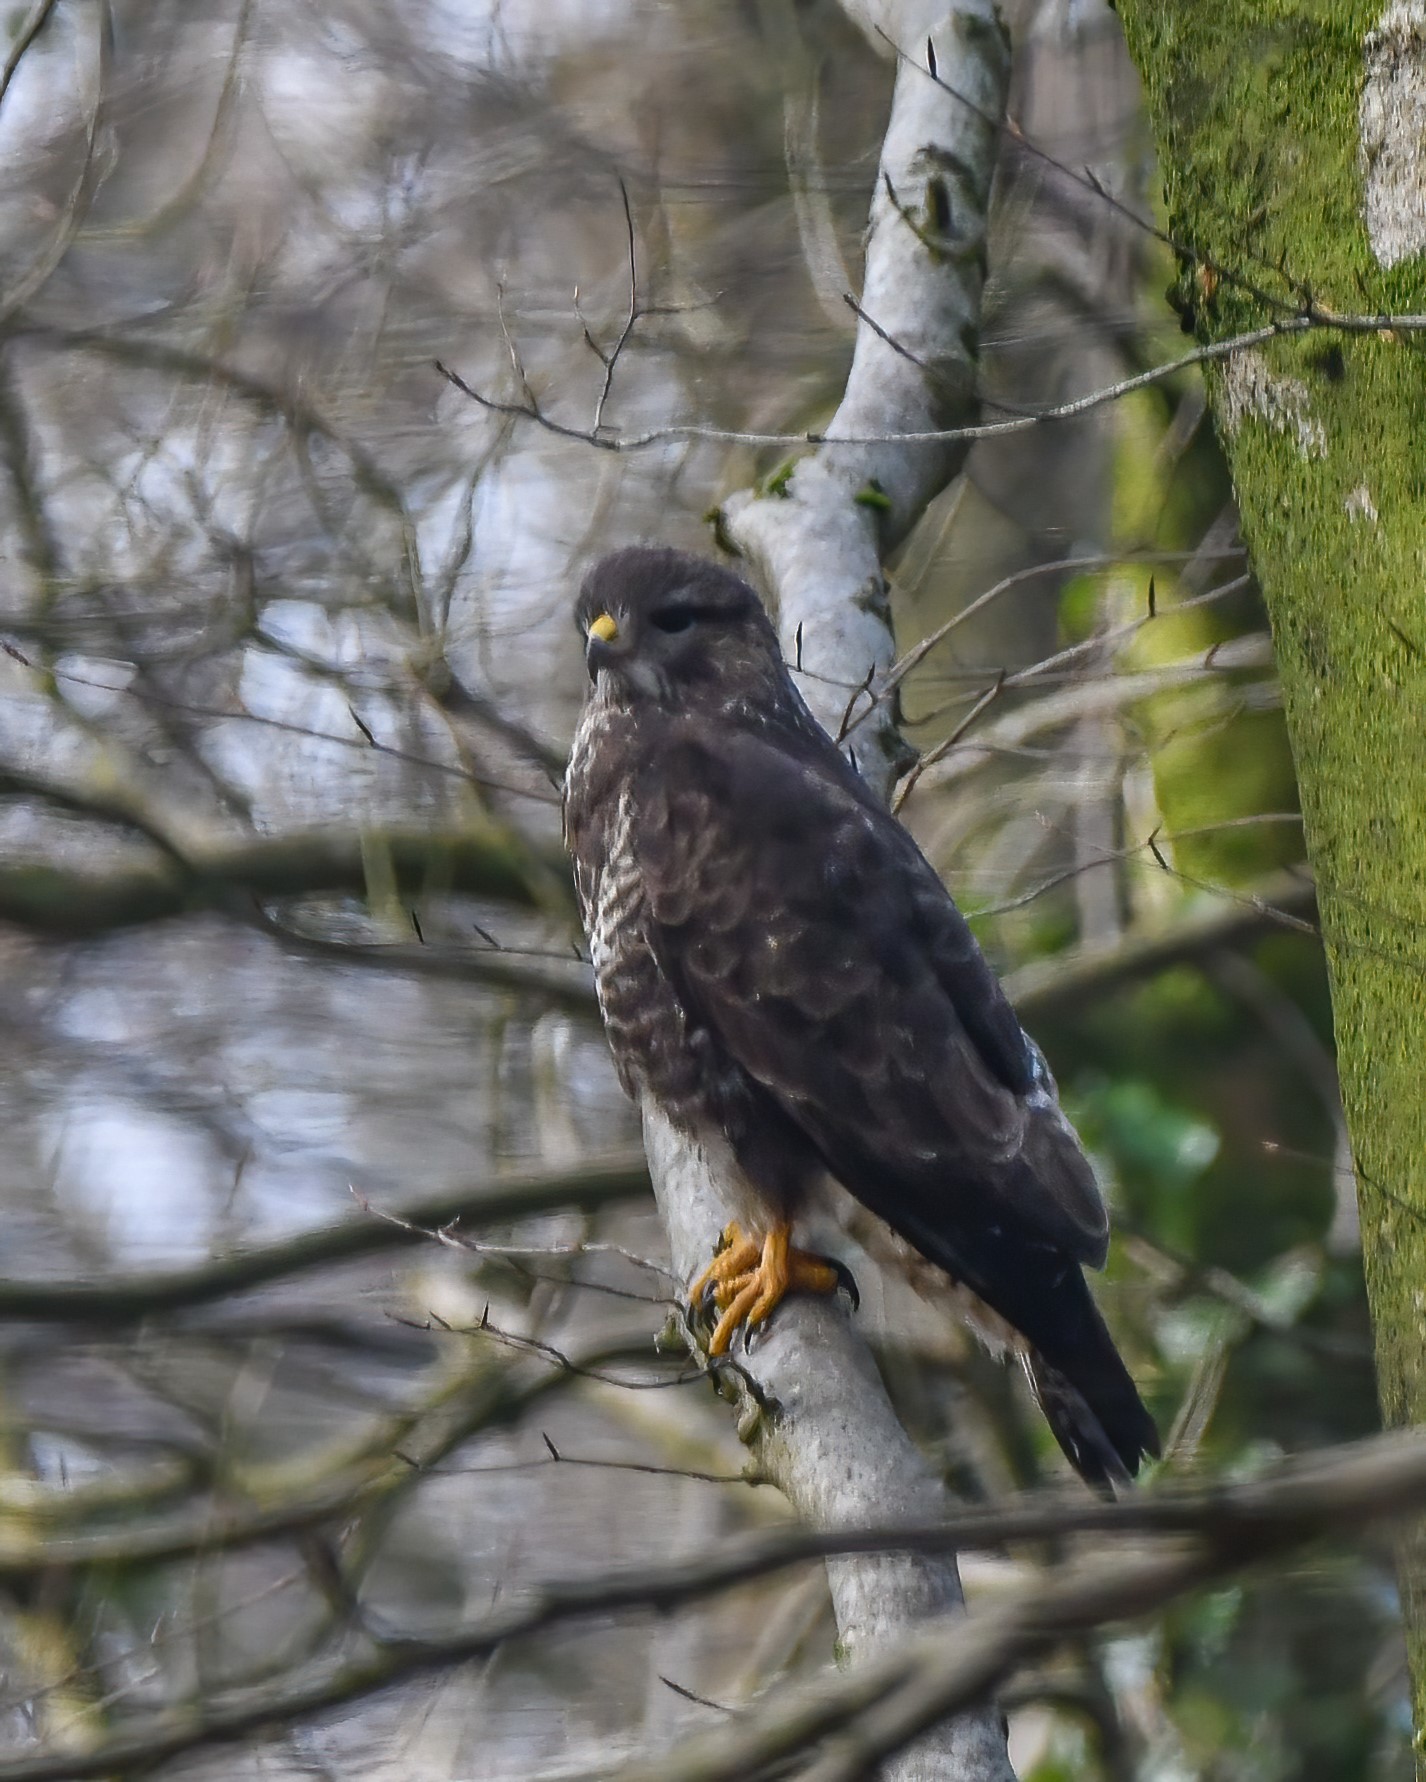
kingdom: Animalia
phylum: Chordata
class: Aves
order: Accipitriformes
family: Accipitridae
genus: Buteo
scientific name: Buteo buteo
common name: Common buzzard
